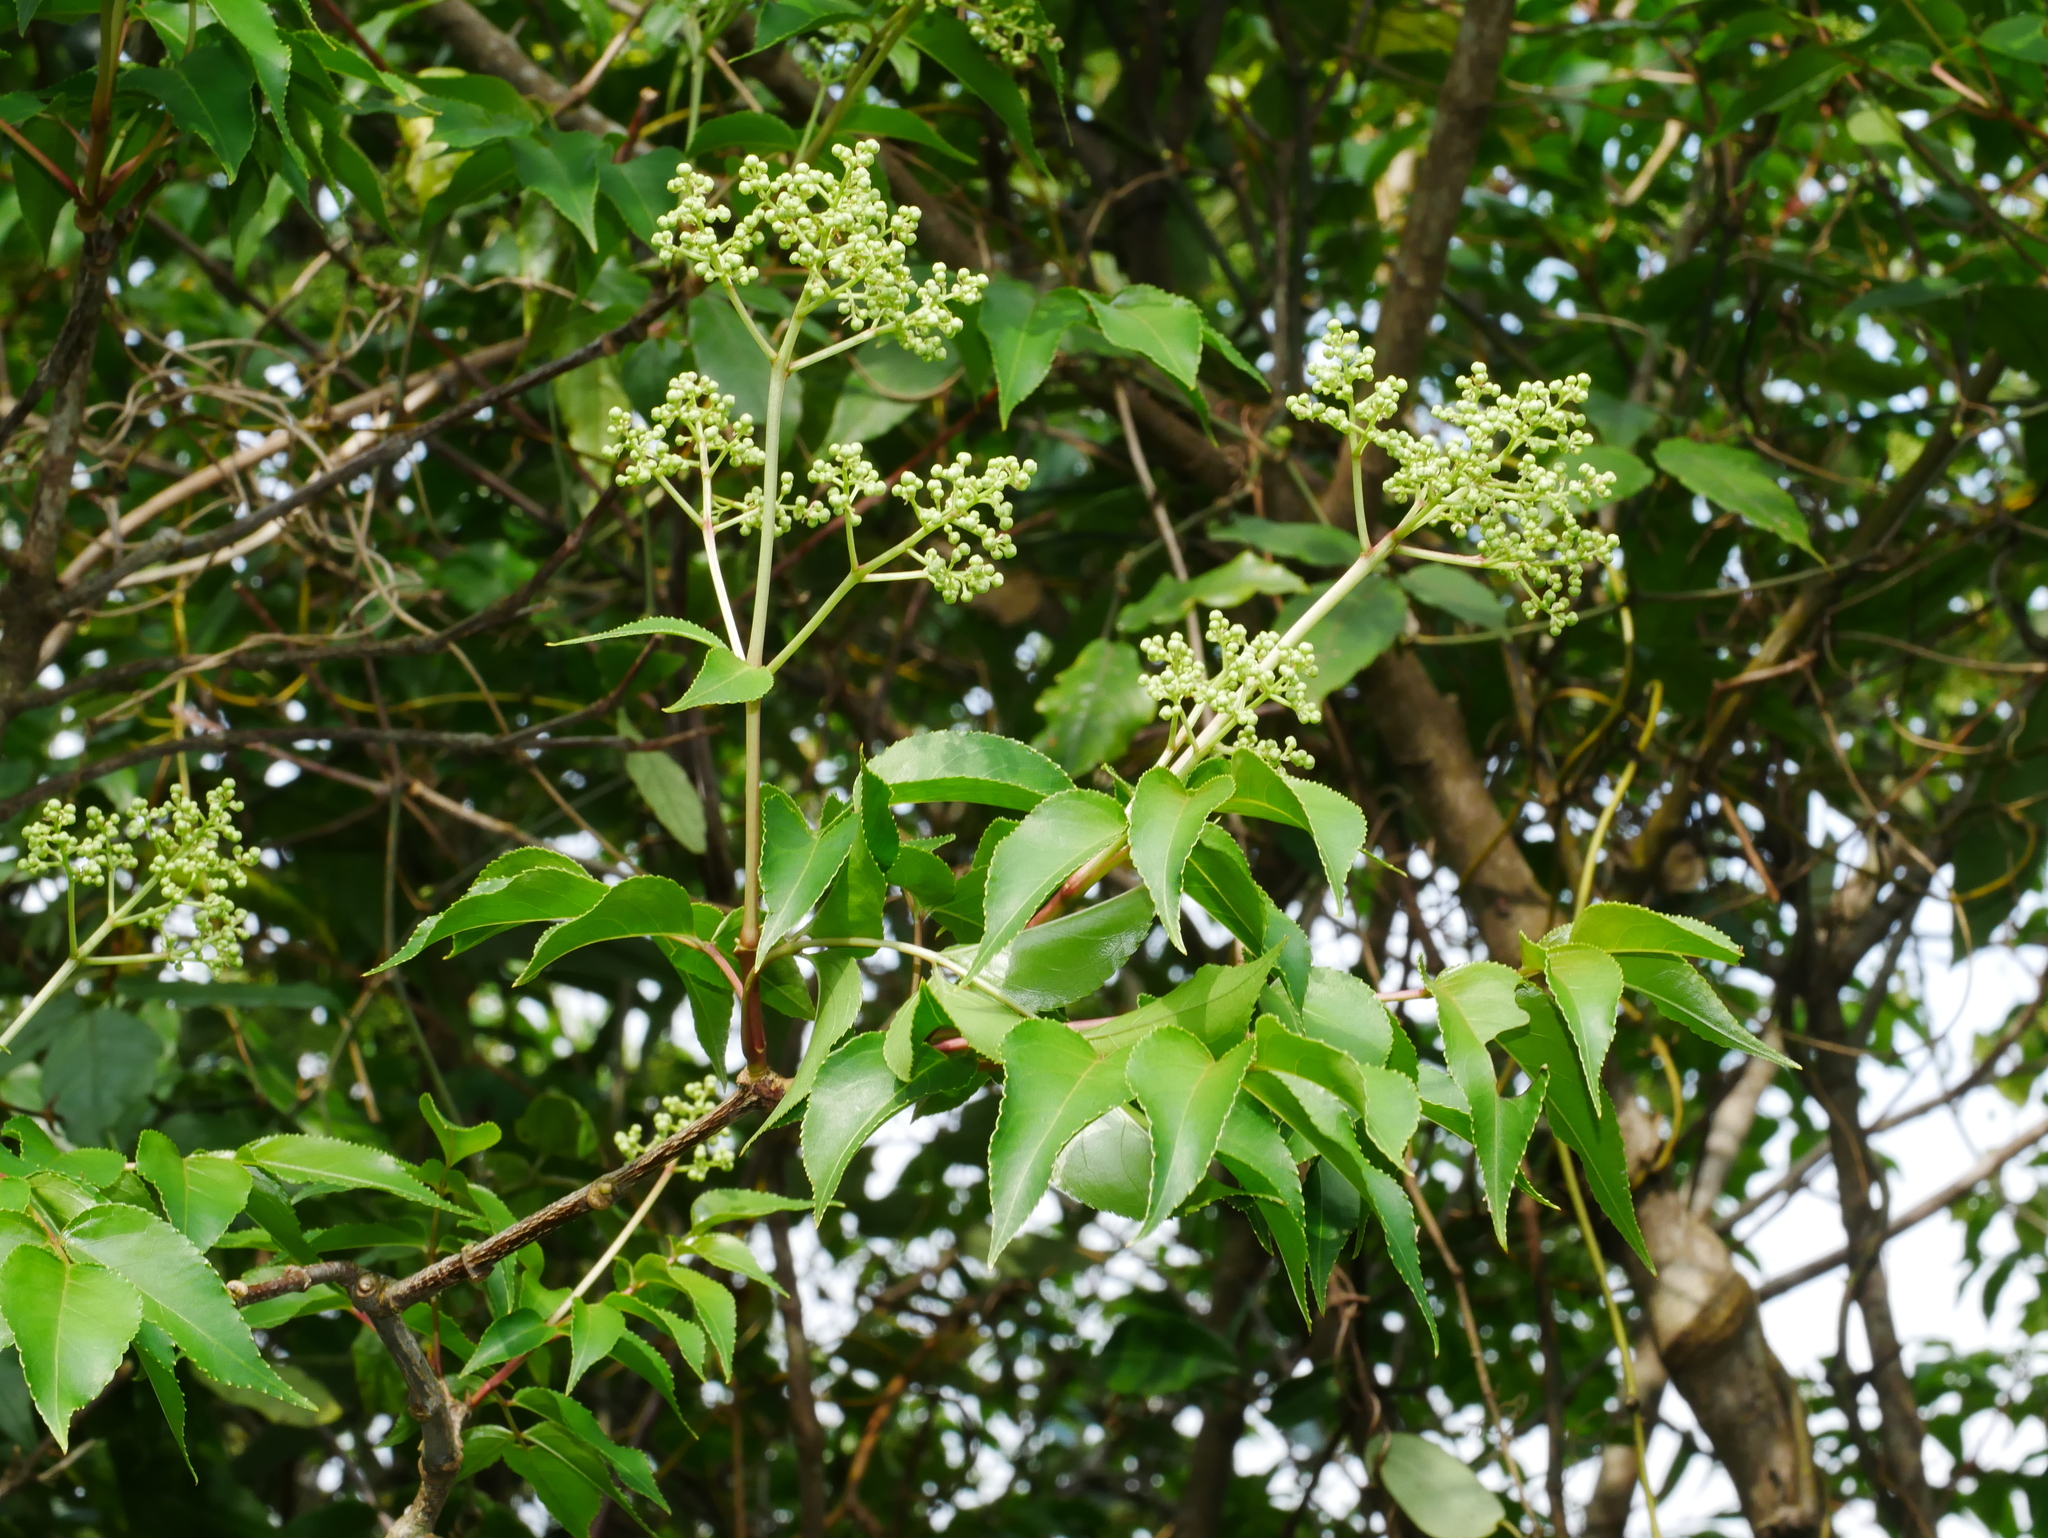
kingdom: Plantae
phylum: Tracheophyta
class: Magnoliopsida
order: Crossosomatales
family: Staphyleaceae
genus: Staphylea
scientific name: Staphylea japonica
